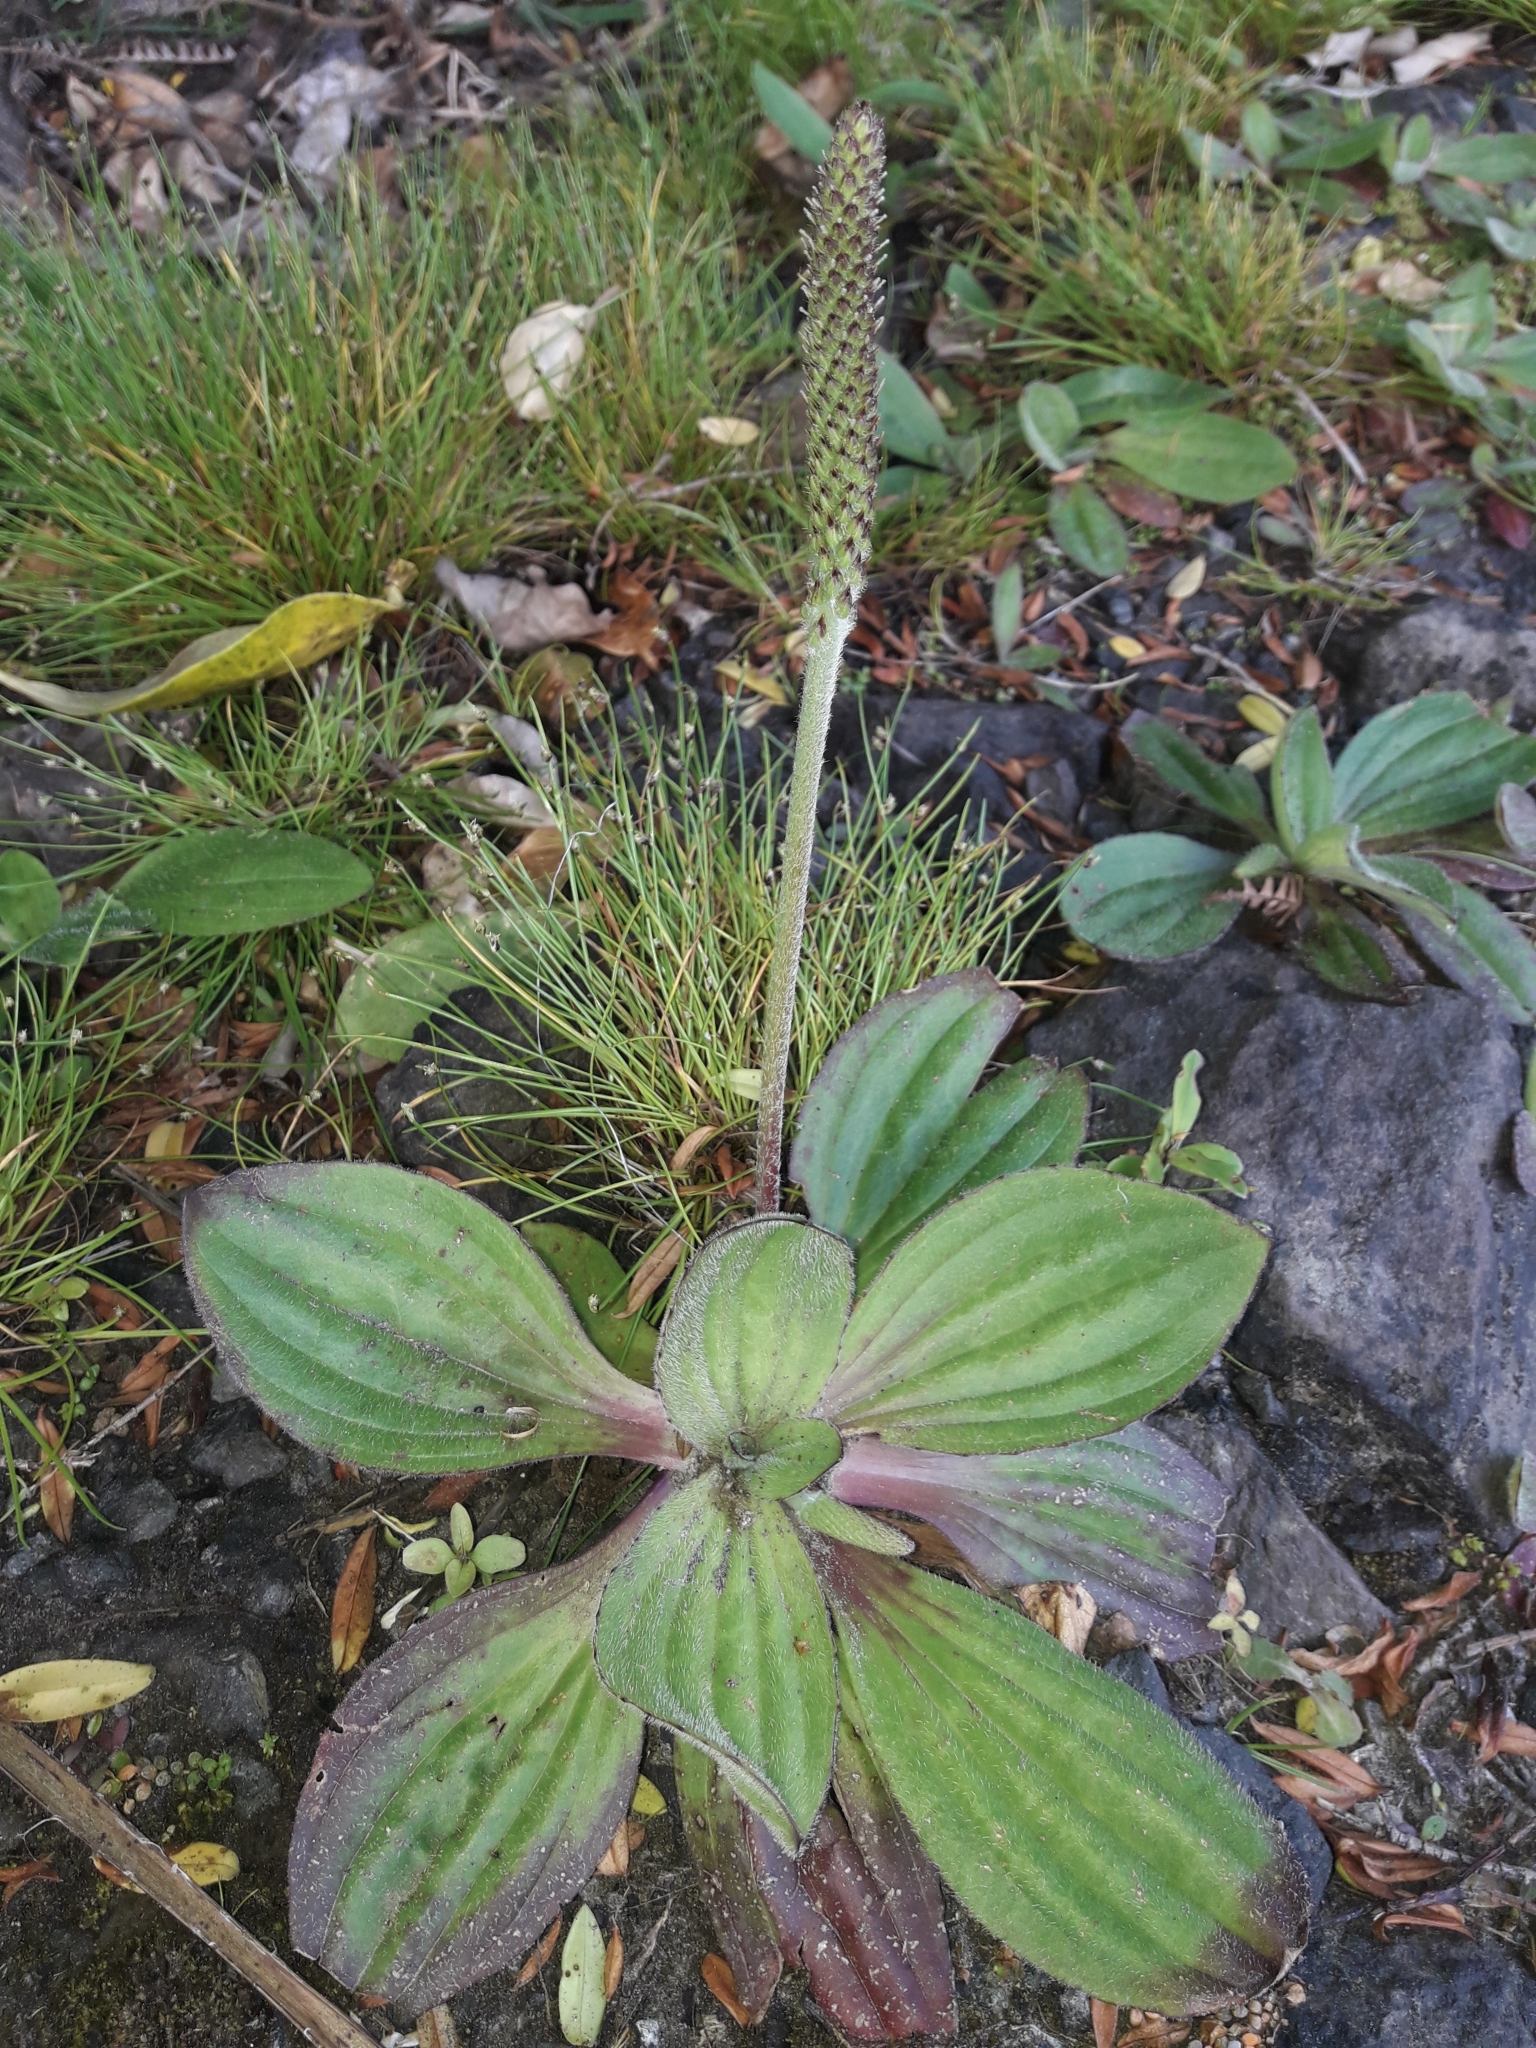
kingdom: Plantae
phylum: Tracheophyta
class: Magnoliopsida
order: Lamiales
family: Plantaginaceae
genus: Plantago
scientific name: Plantago australis
